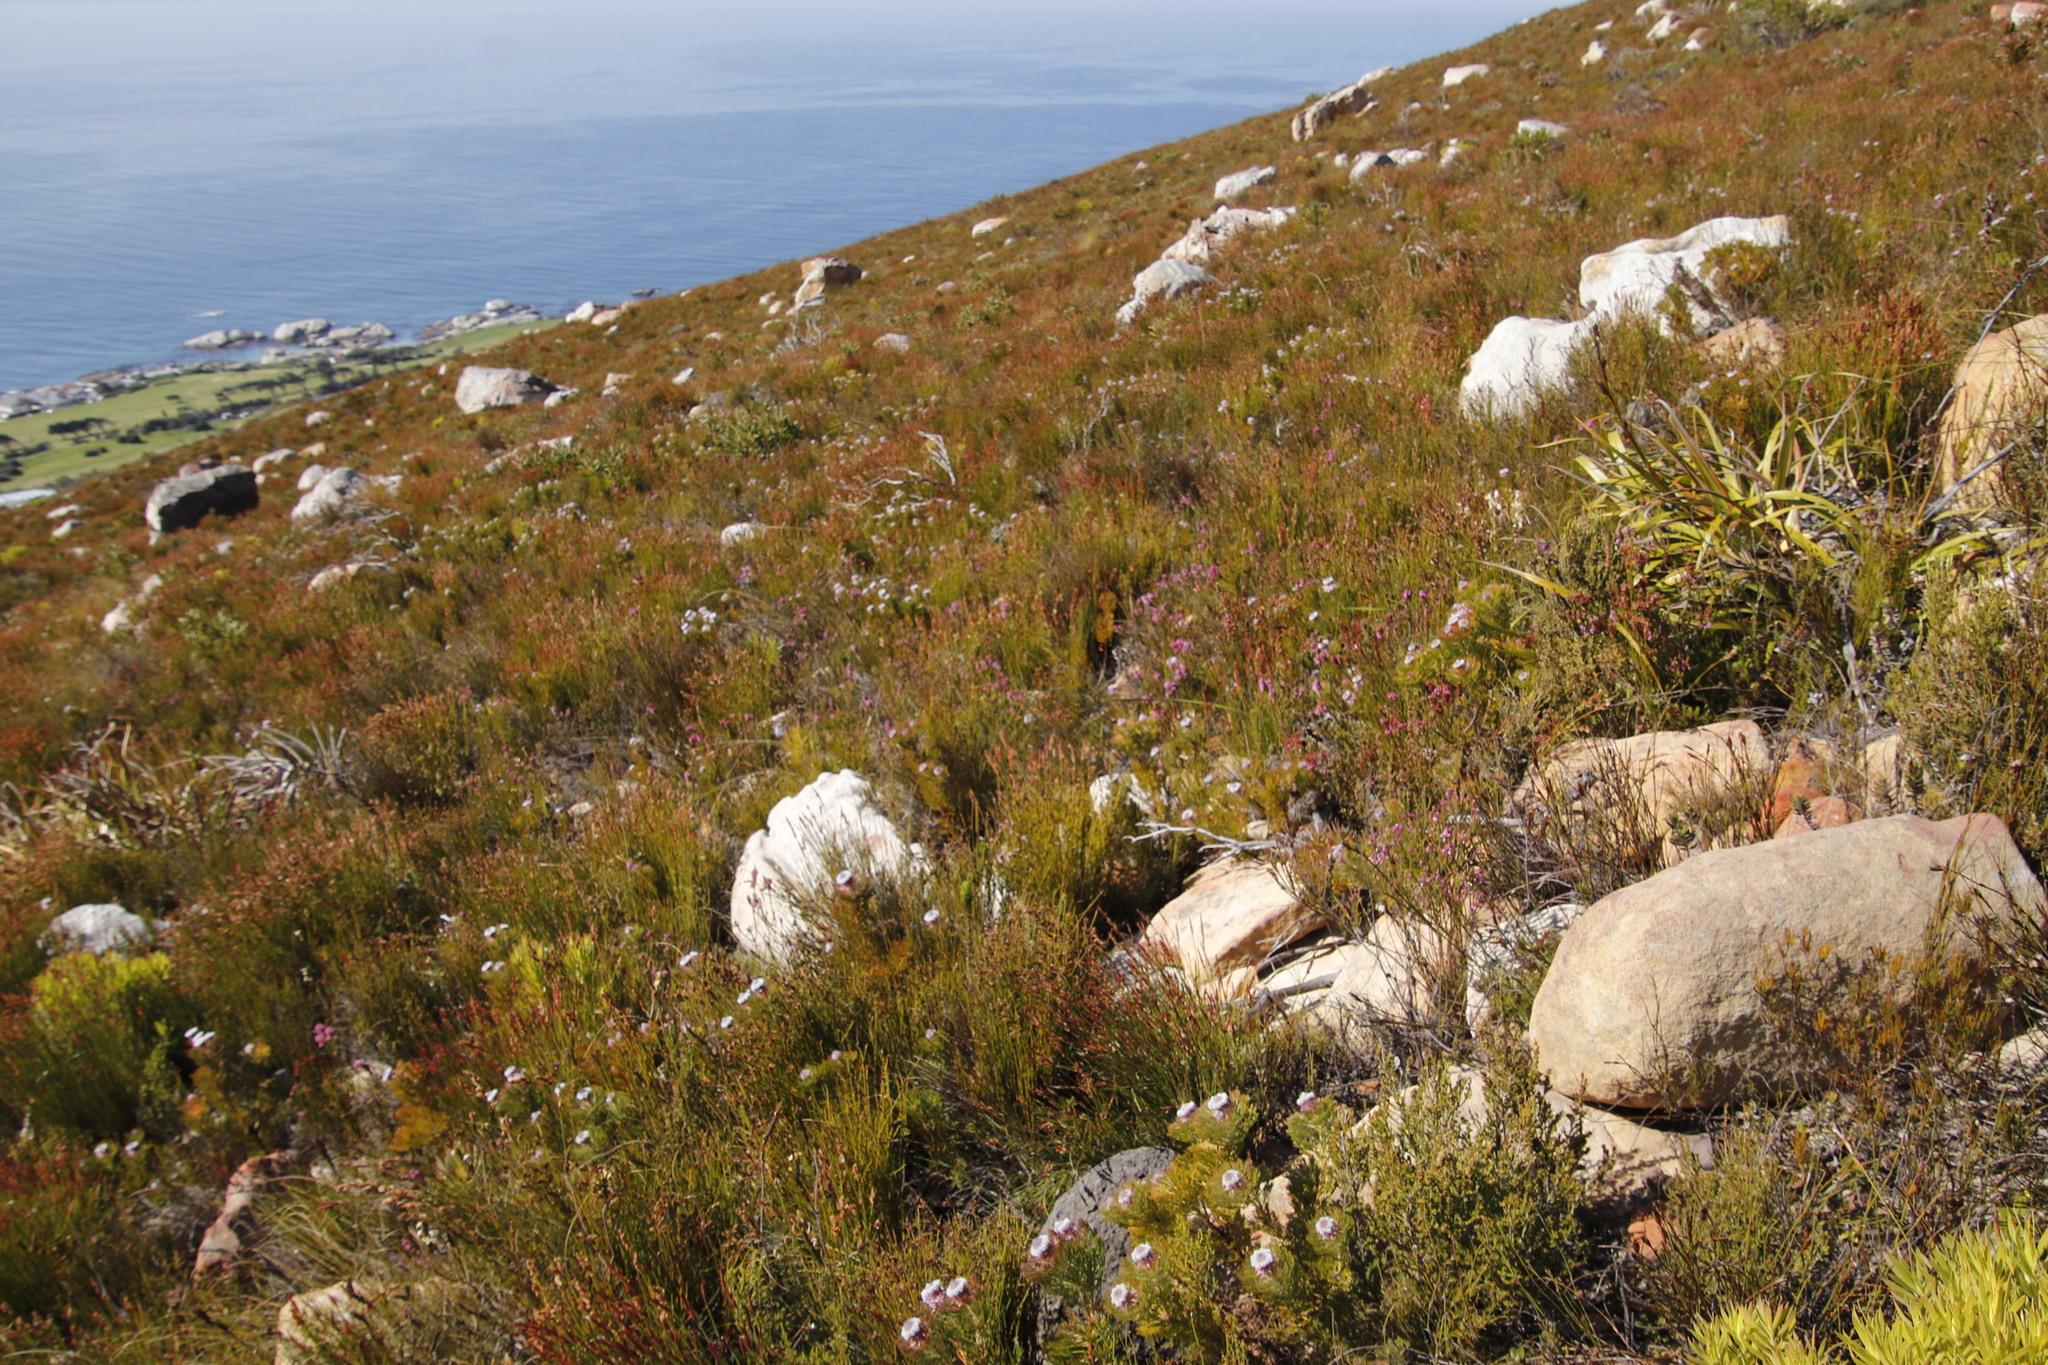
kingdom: Plantae
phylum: Tracheophyta
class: Magnoliopsida
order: Proteales
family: Proteaceae
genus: Serruria
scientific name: Serruria hirsuta
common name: Swartkops spiderhead
